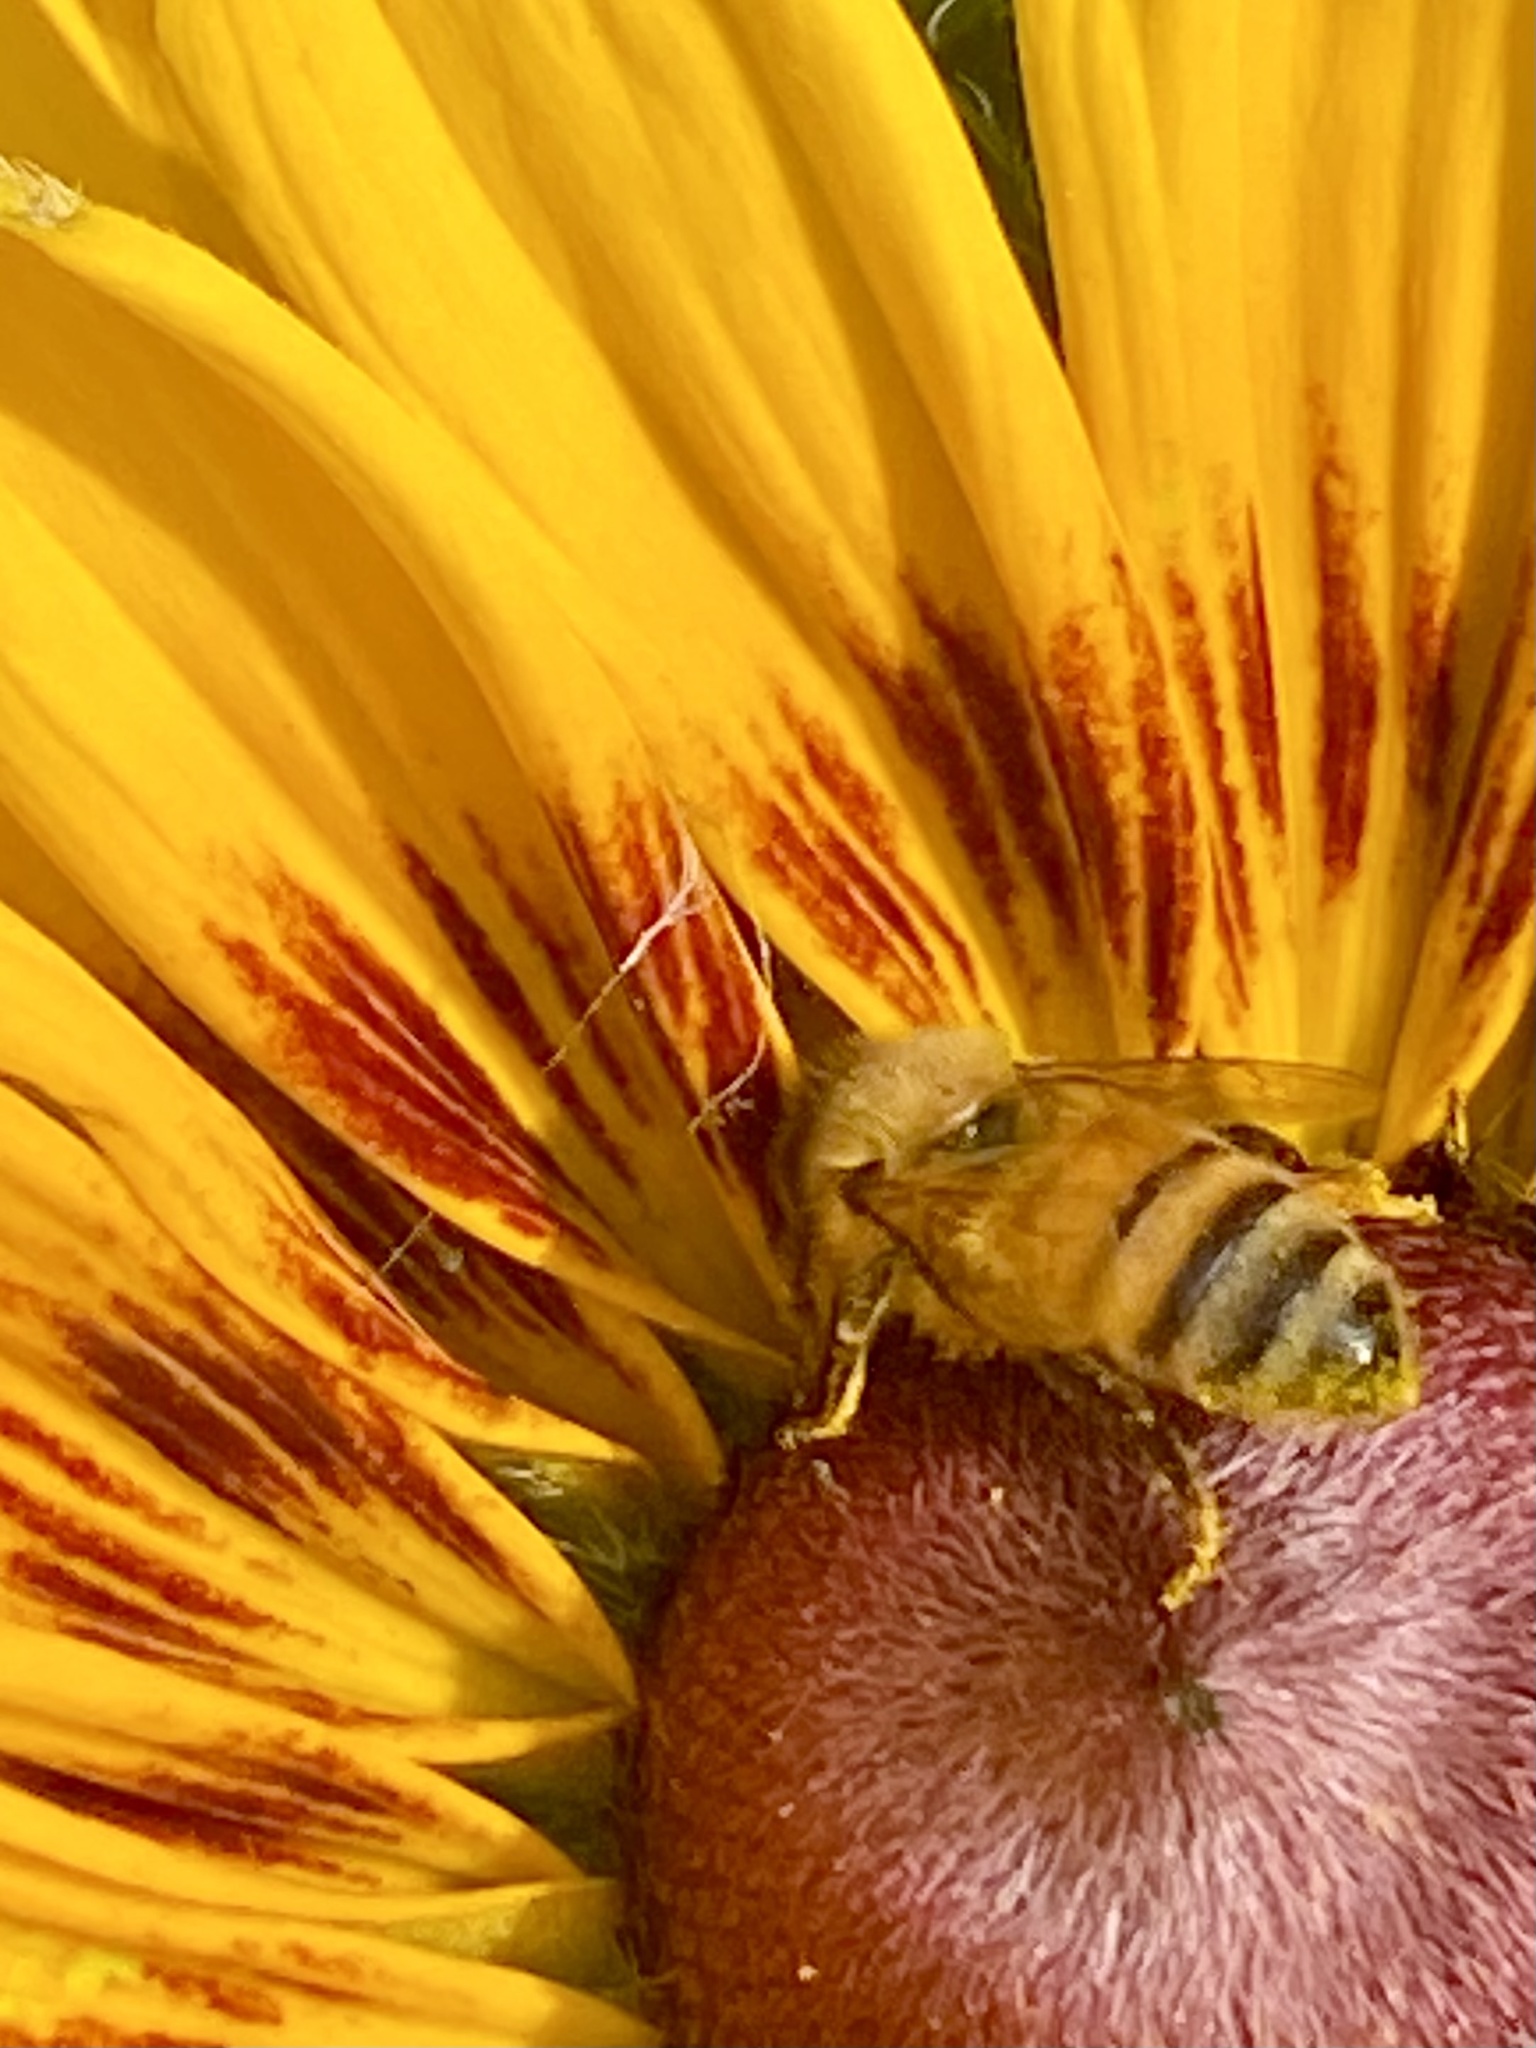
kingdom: Animalia
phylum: Arthropoda
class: Insecta
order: Hymenoptera
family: Apidae
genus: Apis
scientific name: Apis mellifera
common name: Honey bee
